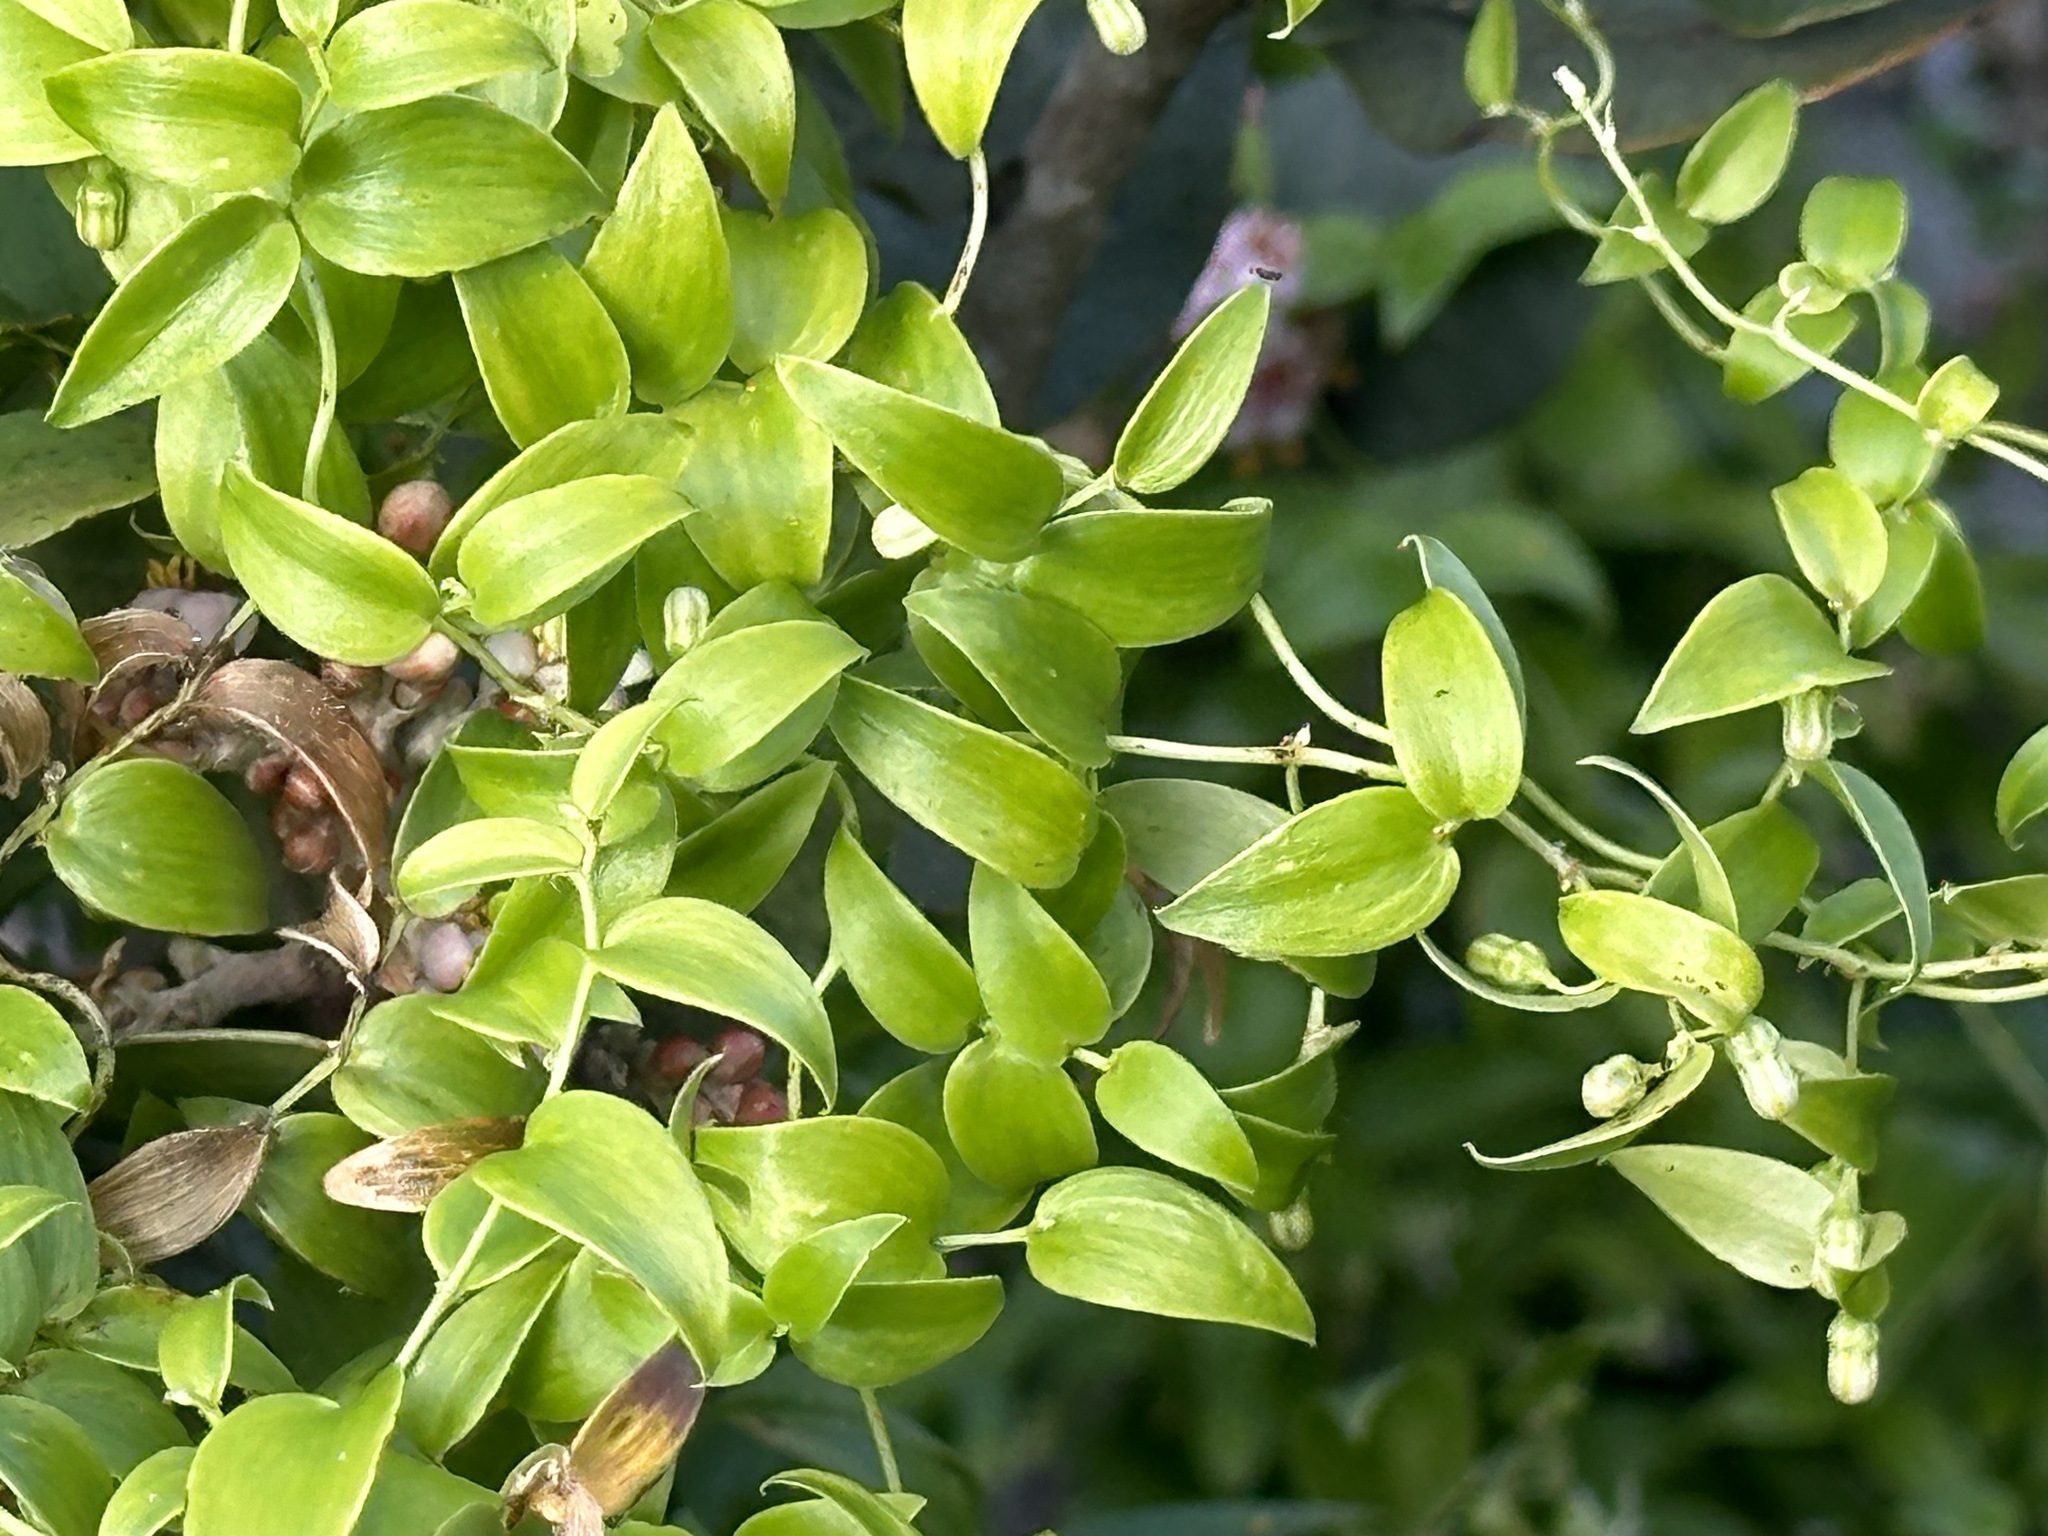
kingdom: Plantae
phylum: Tracheophyta
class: Liliopsida
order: Asparagales
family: Asparagaceae
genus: Asparagus
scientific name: Asparagus asparagoides
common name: African asparagus fern
